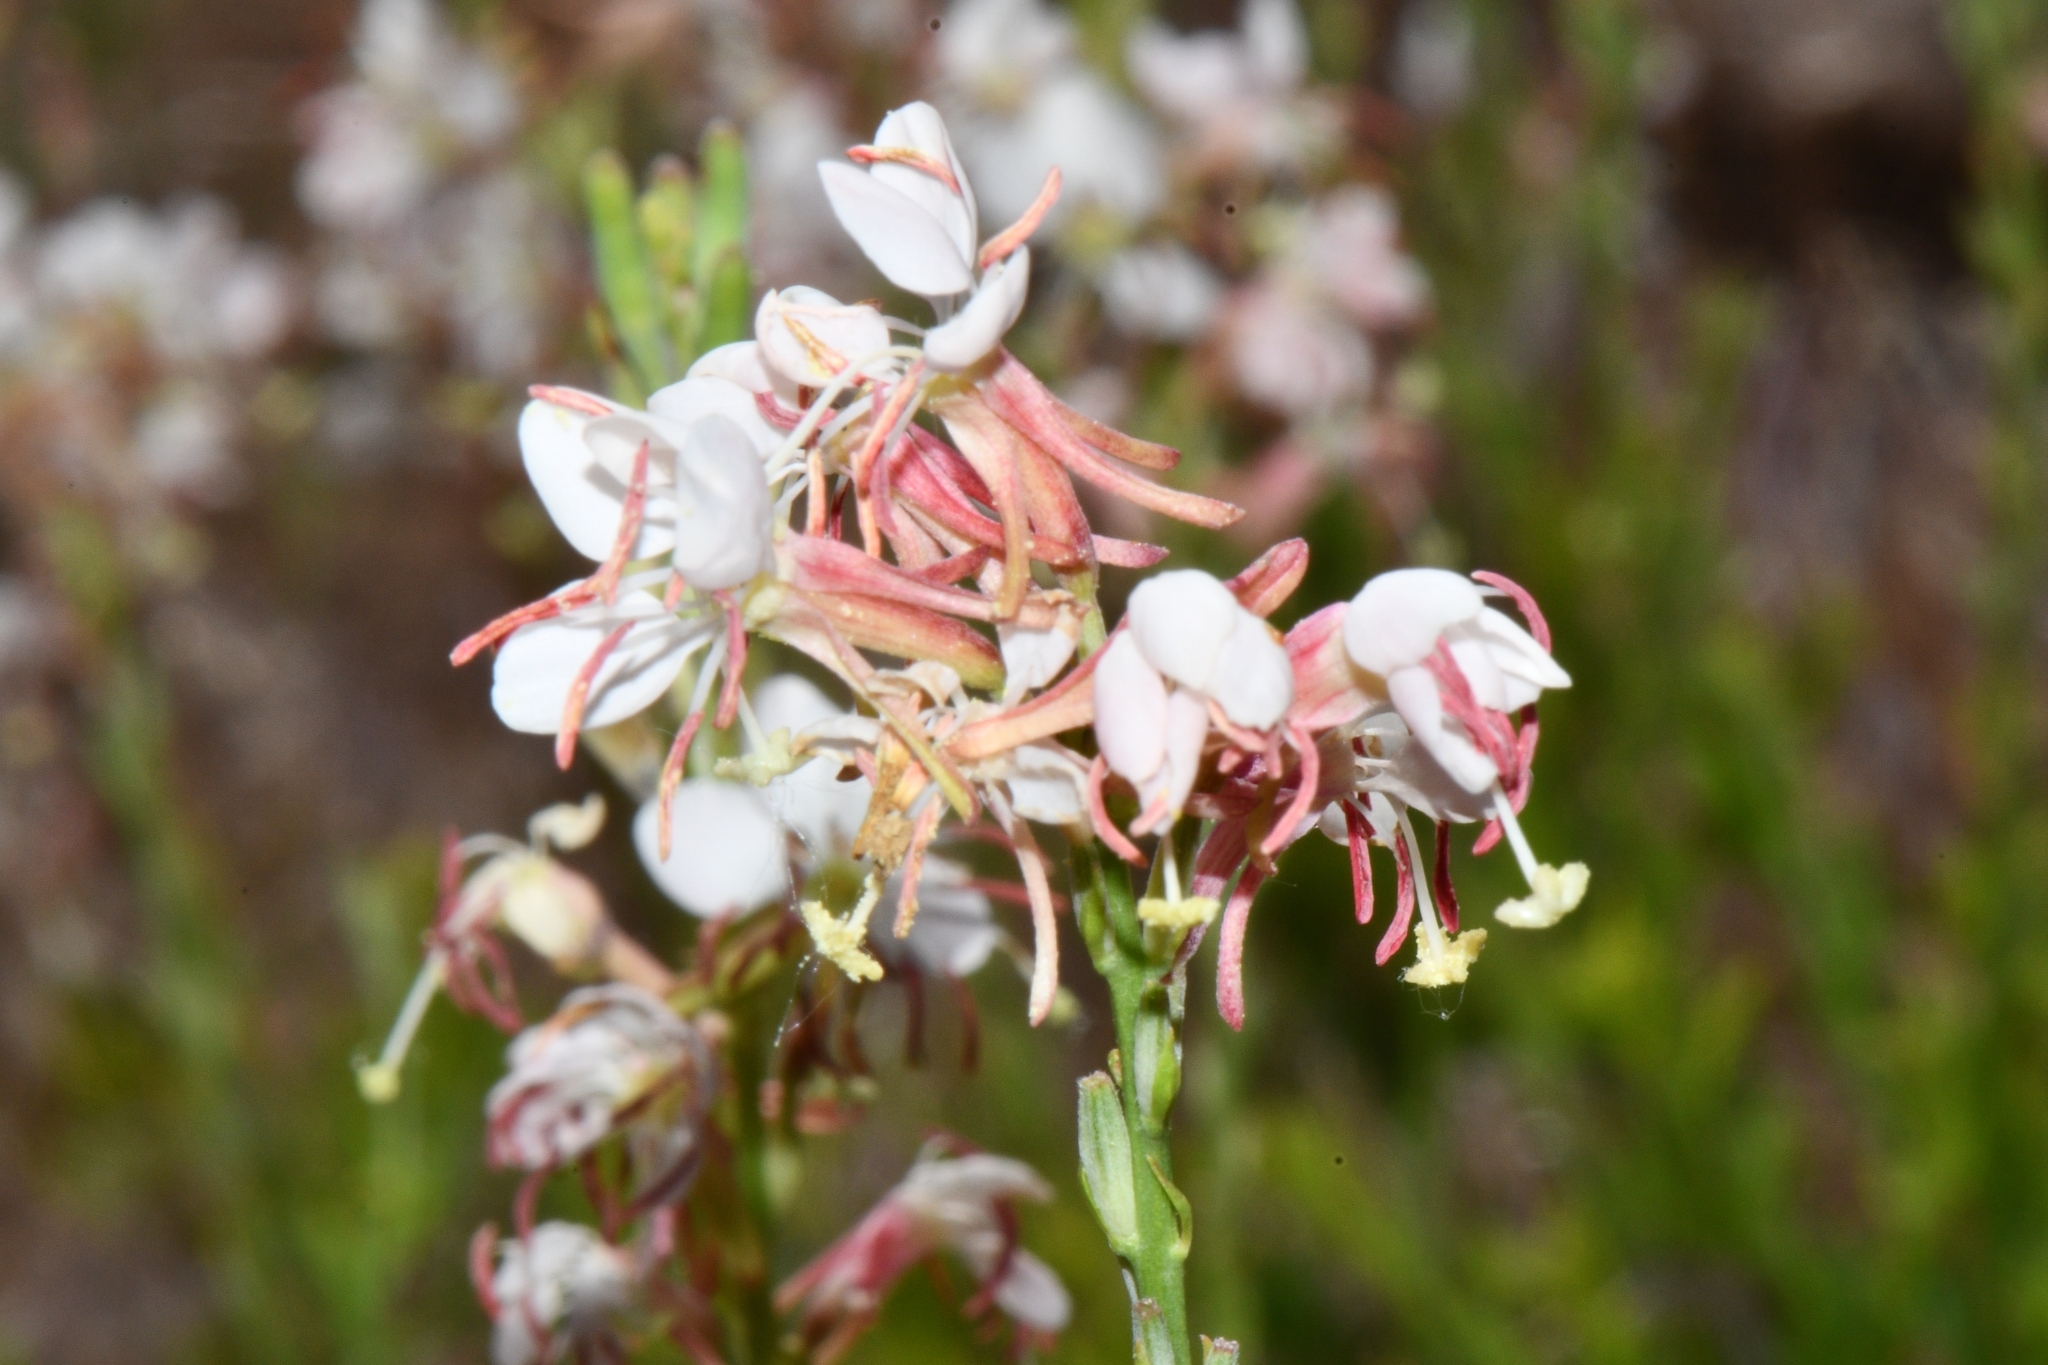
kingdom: Plantae
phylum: Tracheophyta
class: Magnoliopsida
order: Myrtales
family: Onagraceae
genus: Oenothera
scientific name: Oenothera suffrutescens
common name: Scarlet beeblossom
